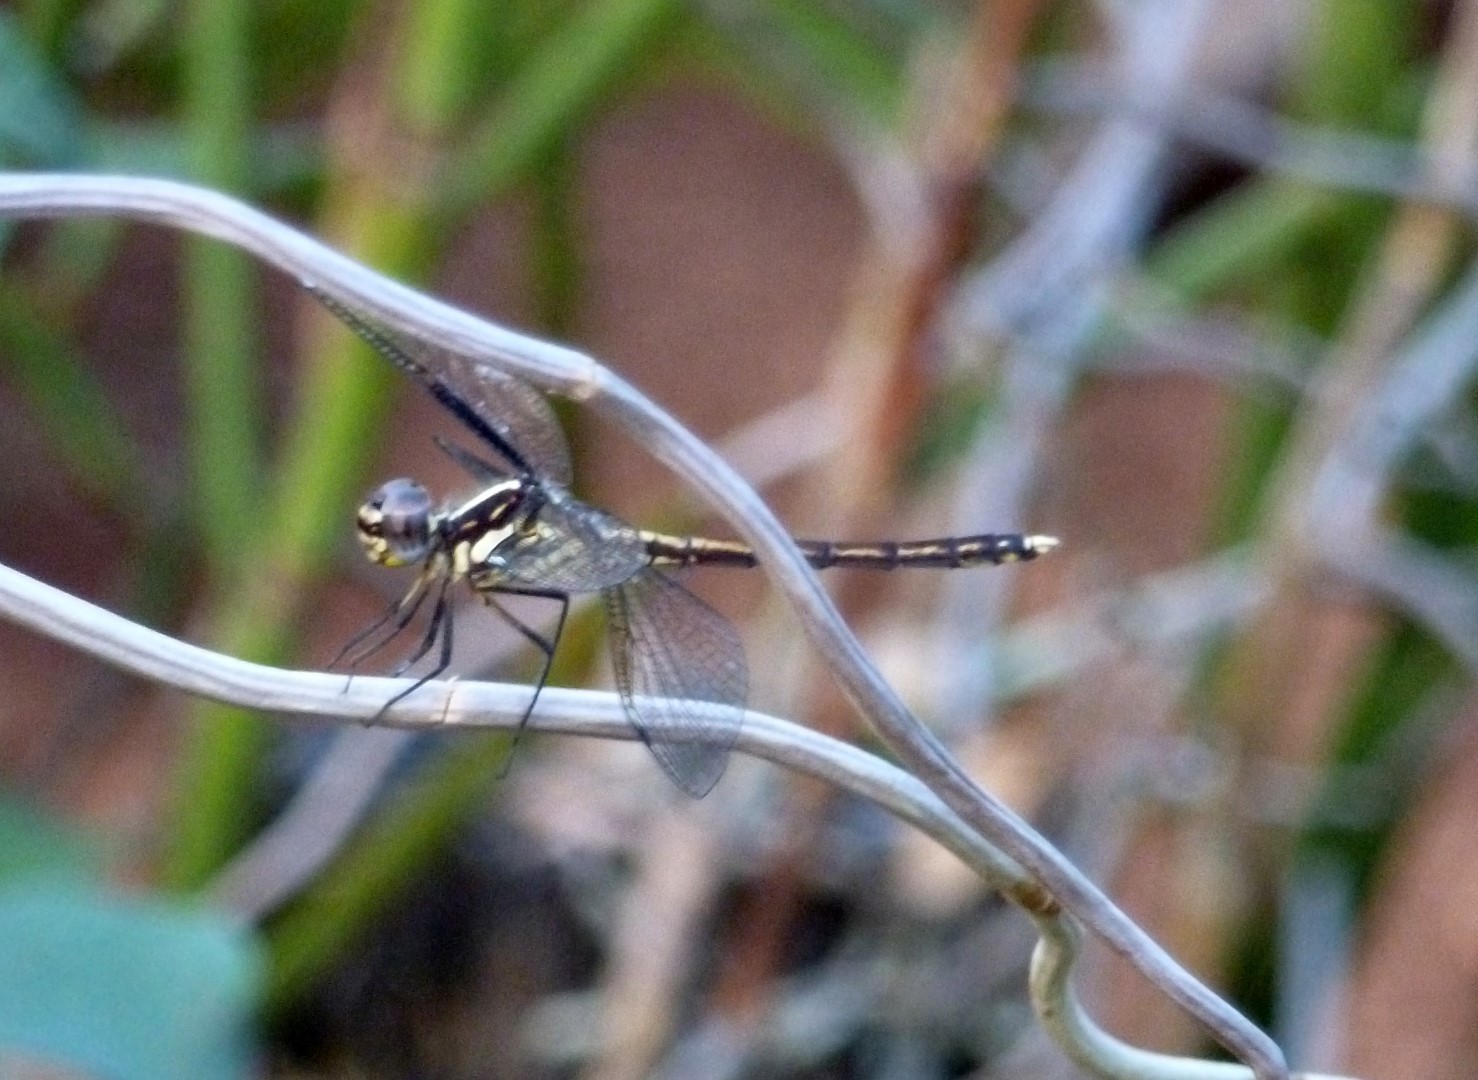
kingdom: Animalia
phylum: Arthropoda
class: Insecta
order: Odonata
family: Libellulidae
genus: Hemistigma
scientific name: Hemistigma affine
